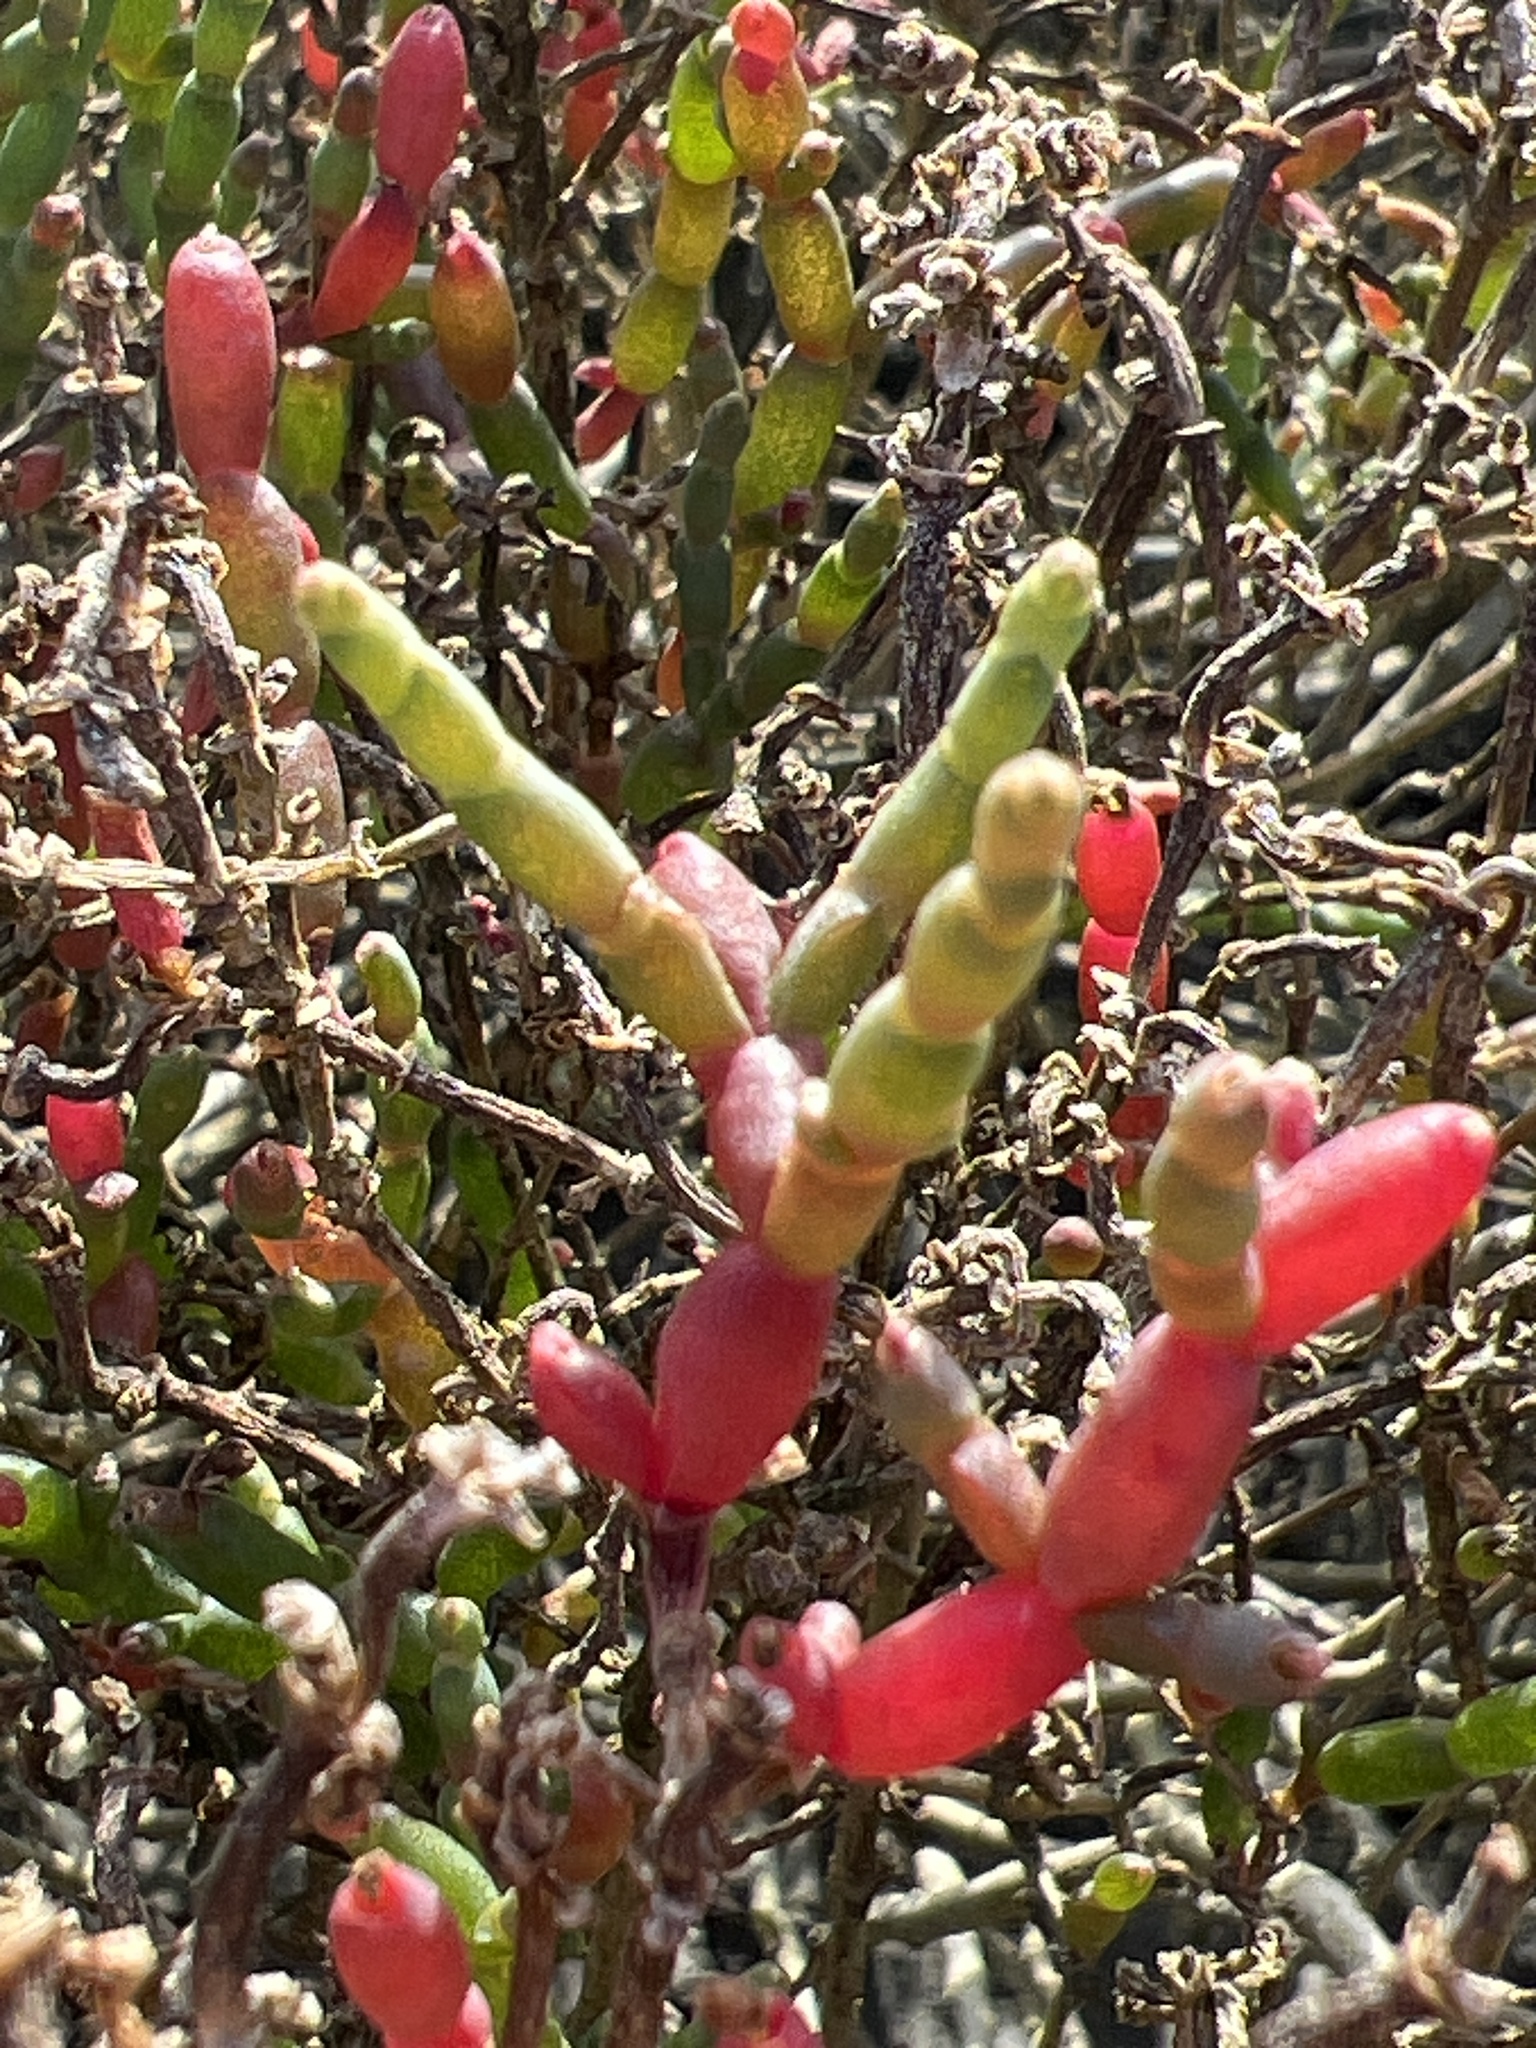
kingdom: Plantae
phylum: Tracheophyta
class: Magnoliopsida
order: Caryophyllales
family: Amaranthaceae
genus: Salicornia
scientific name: Salicornia ambigua
